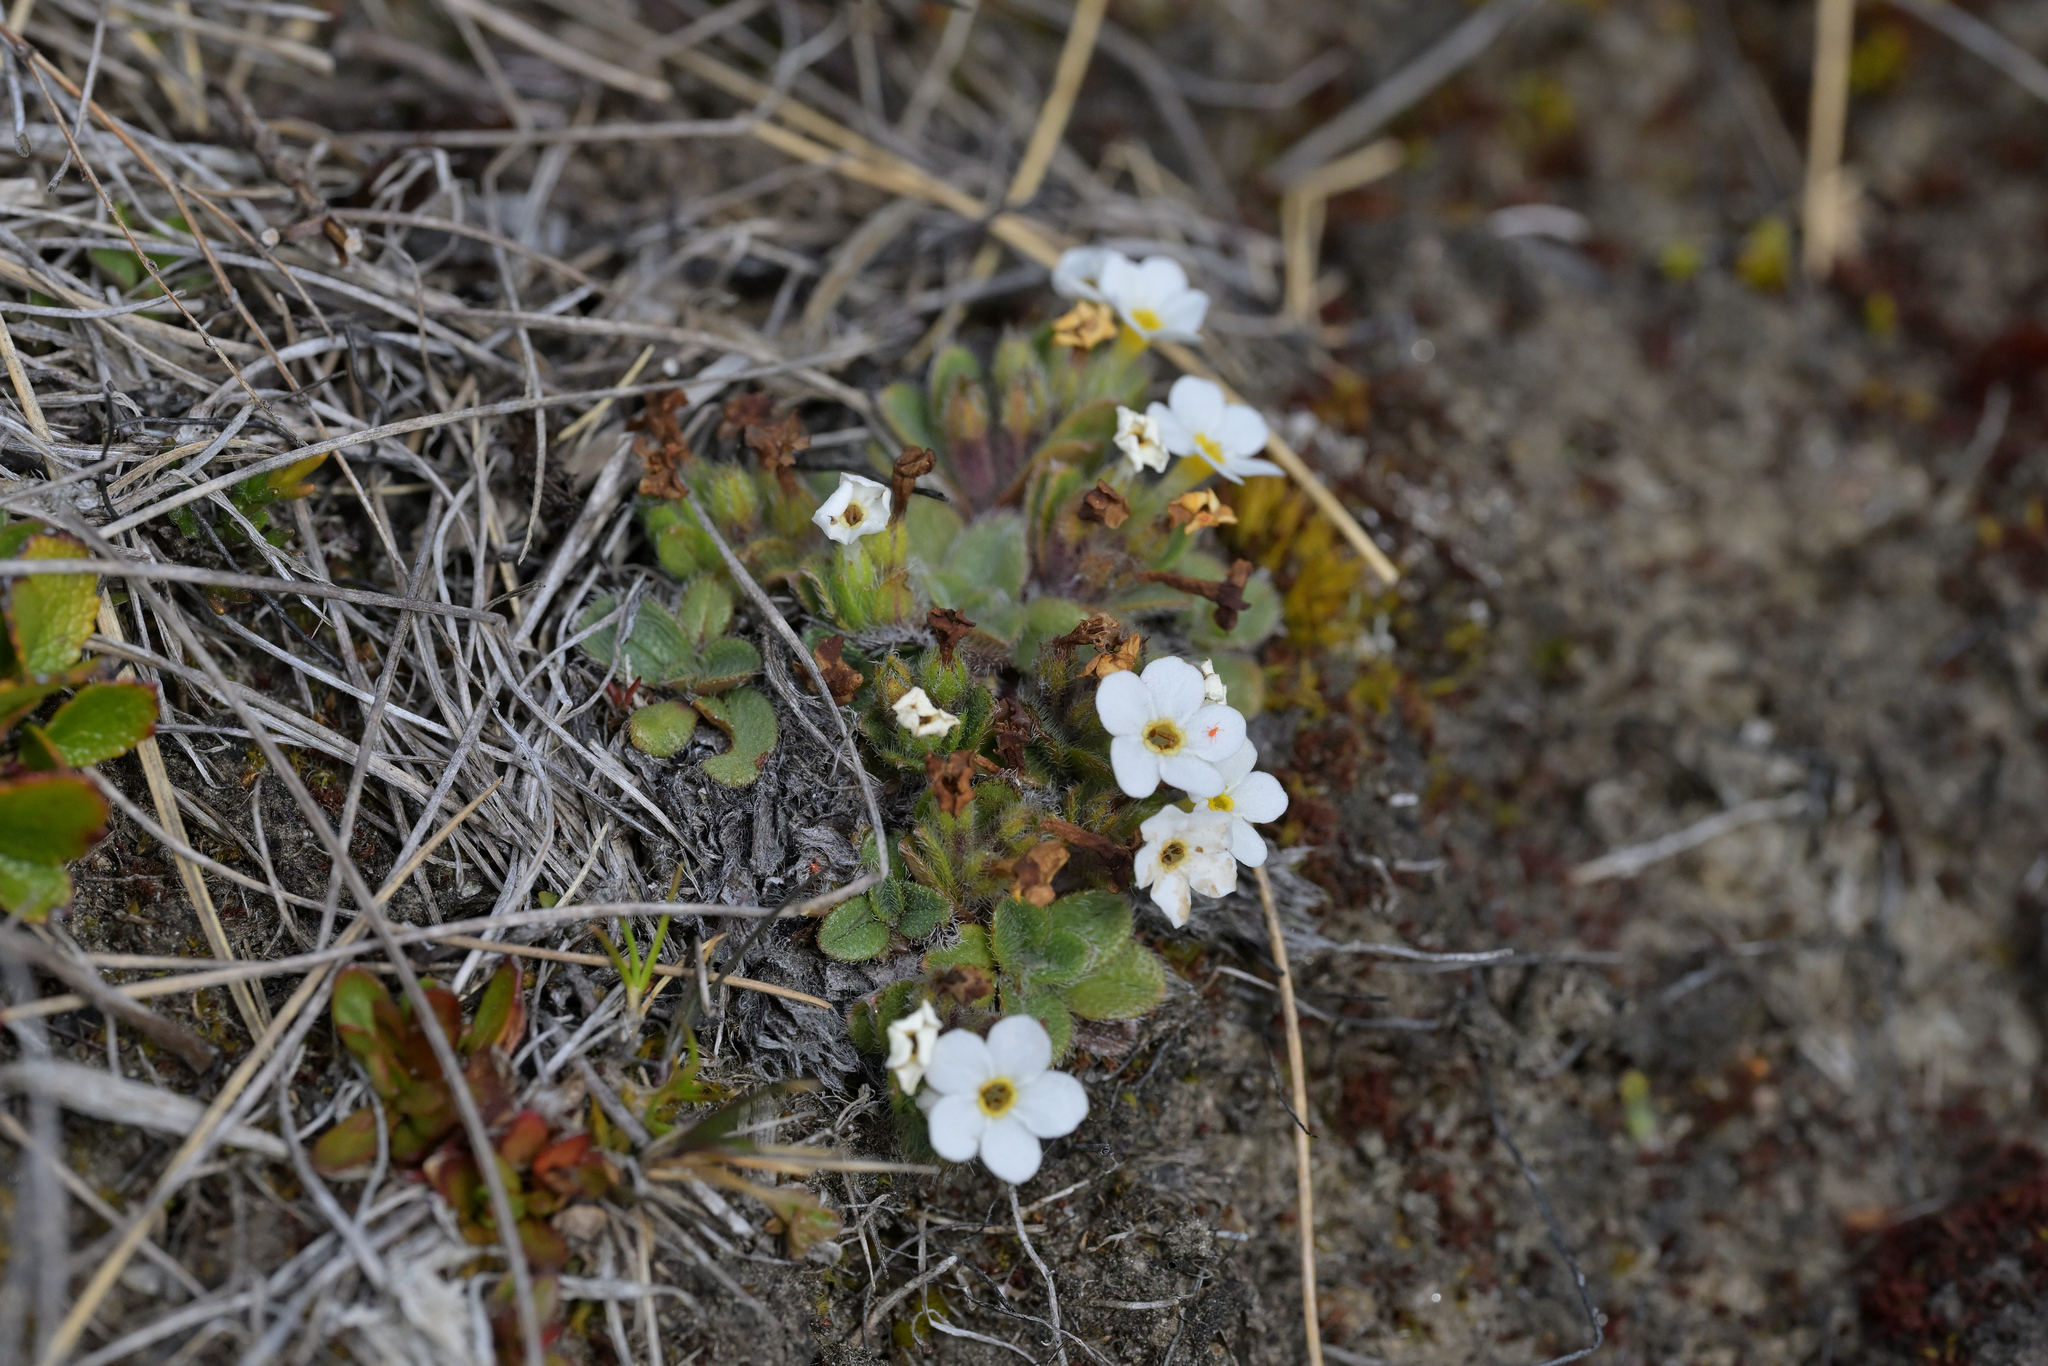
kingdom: Plantae
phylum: Tracheophyta
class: Magnoliopsida
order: Boraginales
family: Boraginaceae
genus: Myosotis
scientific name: Myosotis lyallii
